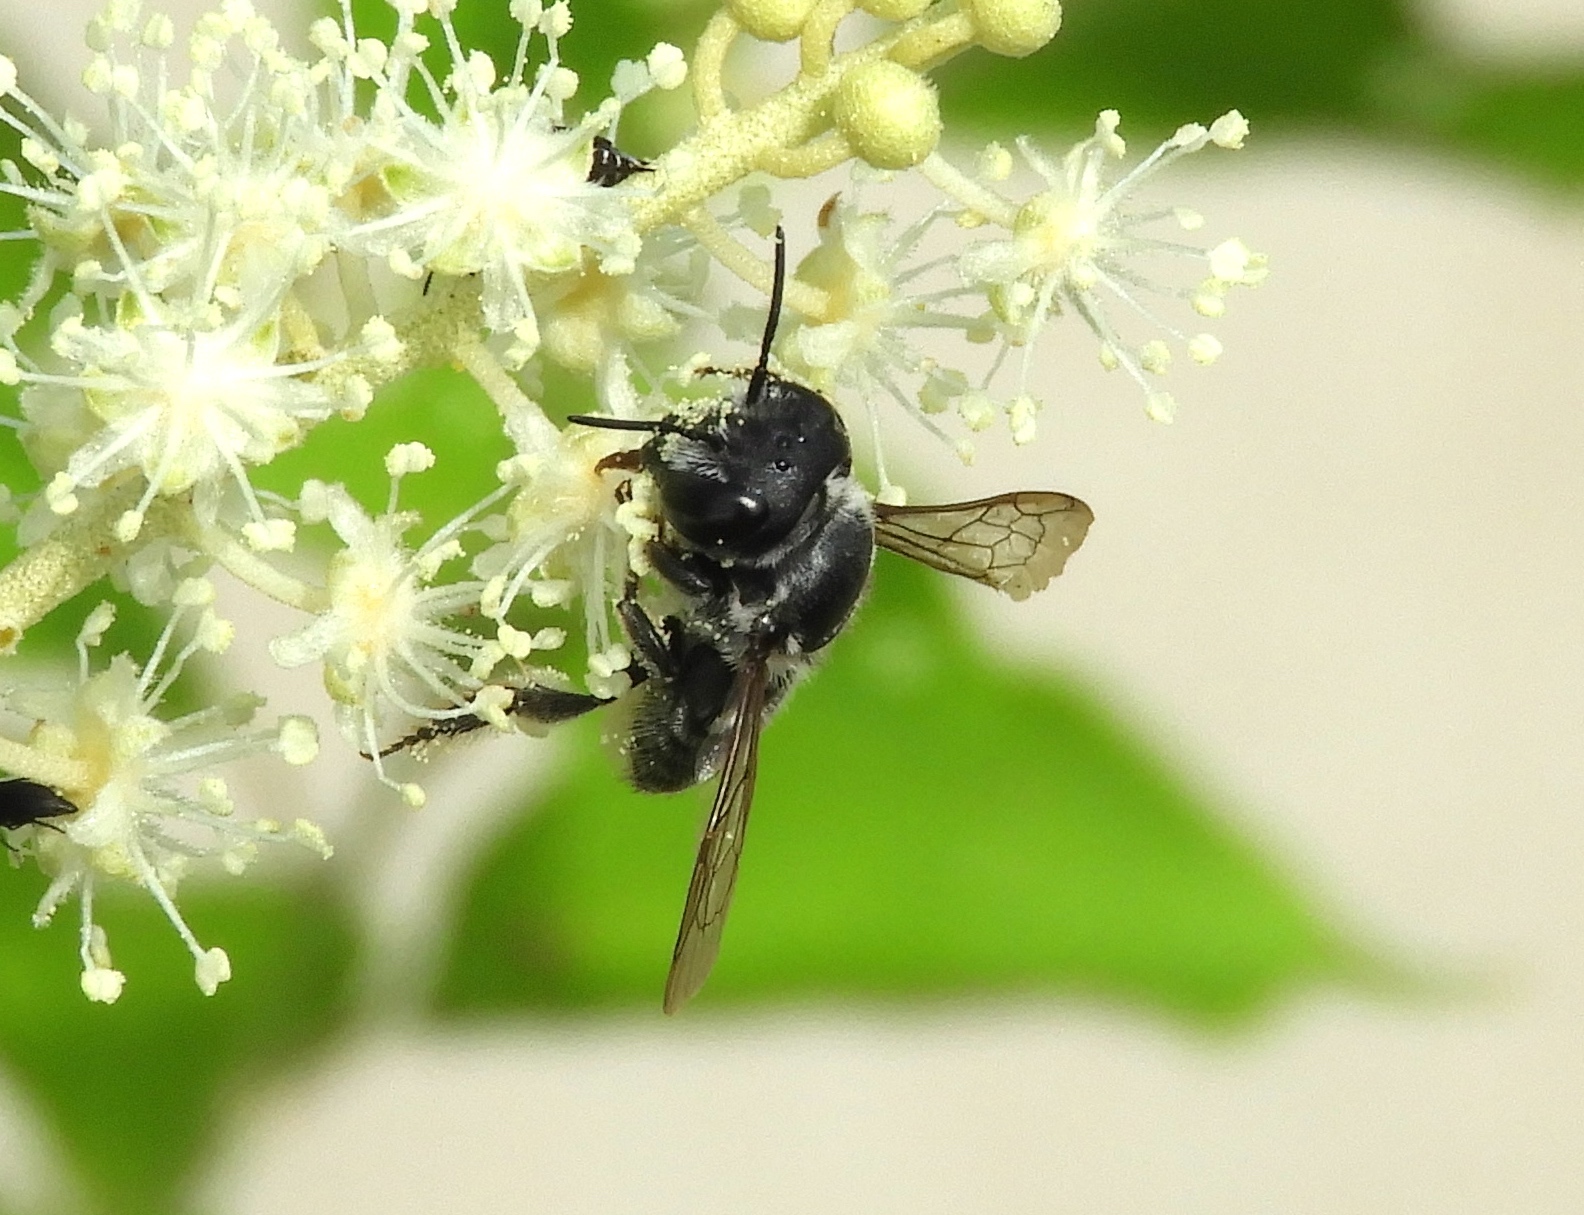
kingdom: Animalia
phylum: Arthropoda
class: Insecta
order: Hymenoptera
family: Megachilidae
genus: Megachile
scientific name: Megachile
